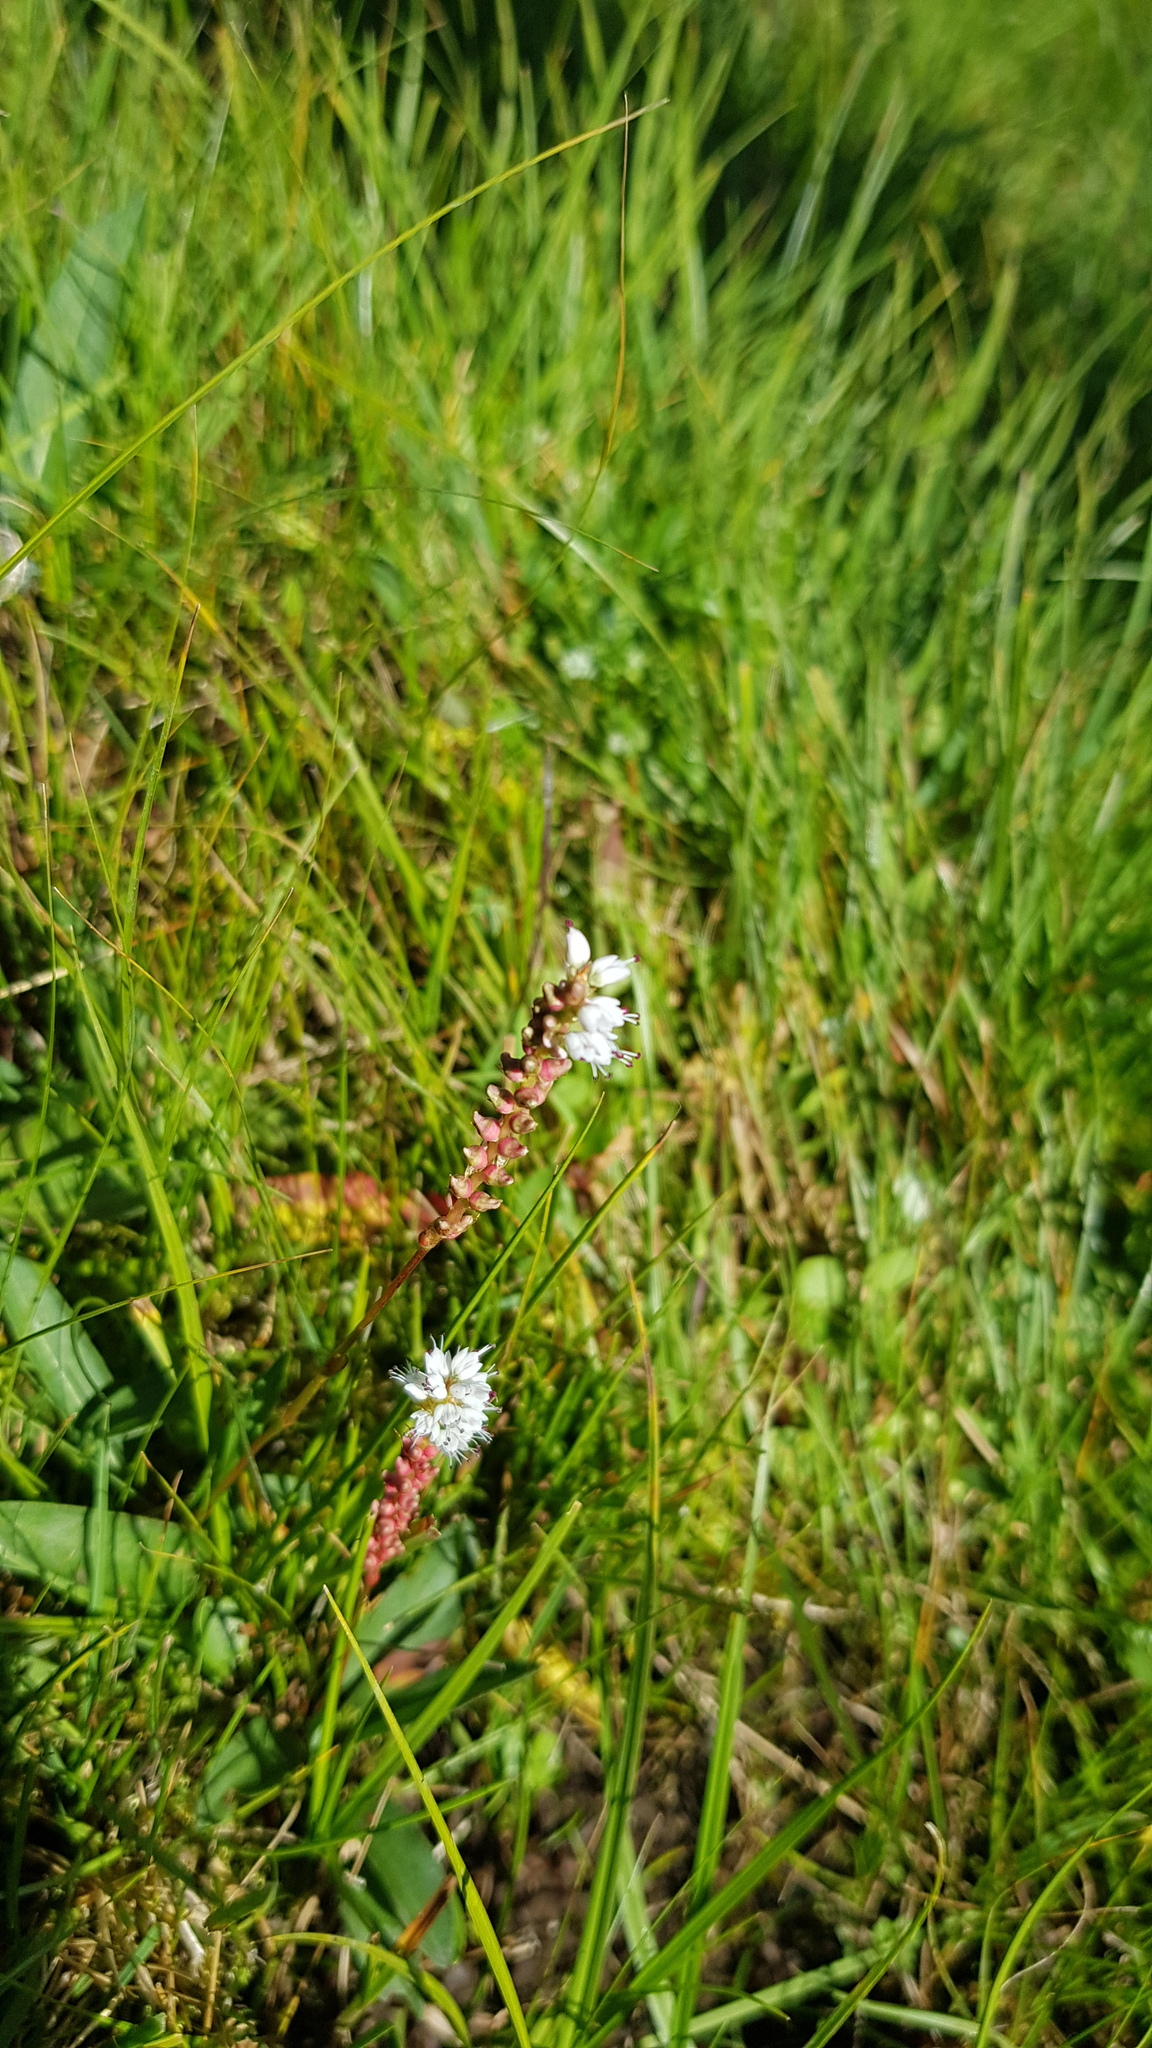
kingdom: Plantae
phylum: Tracheophyta
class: Magnoliopsida
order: Caryophyllales
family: Polygonaceae
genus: Bistorta
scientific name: Bistorta vivipara
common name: Alpine bistort
